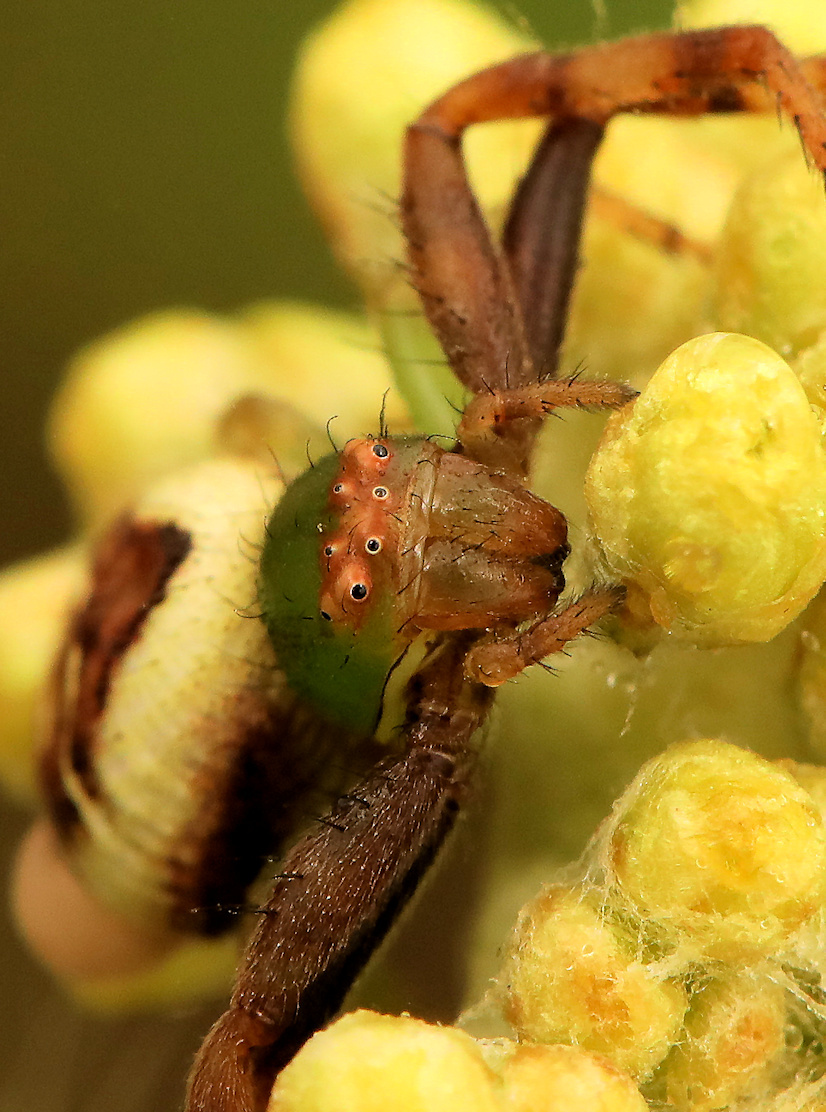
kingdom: Animalia
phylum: Arthropoda
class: Arachnida
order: Araneae
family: Thomisidae
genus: Synema
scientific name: Synema imitatrix
